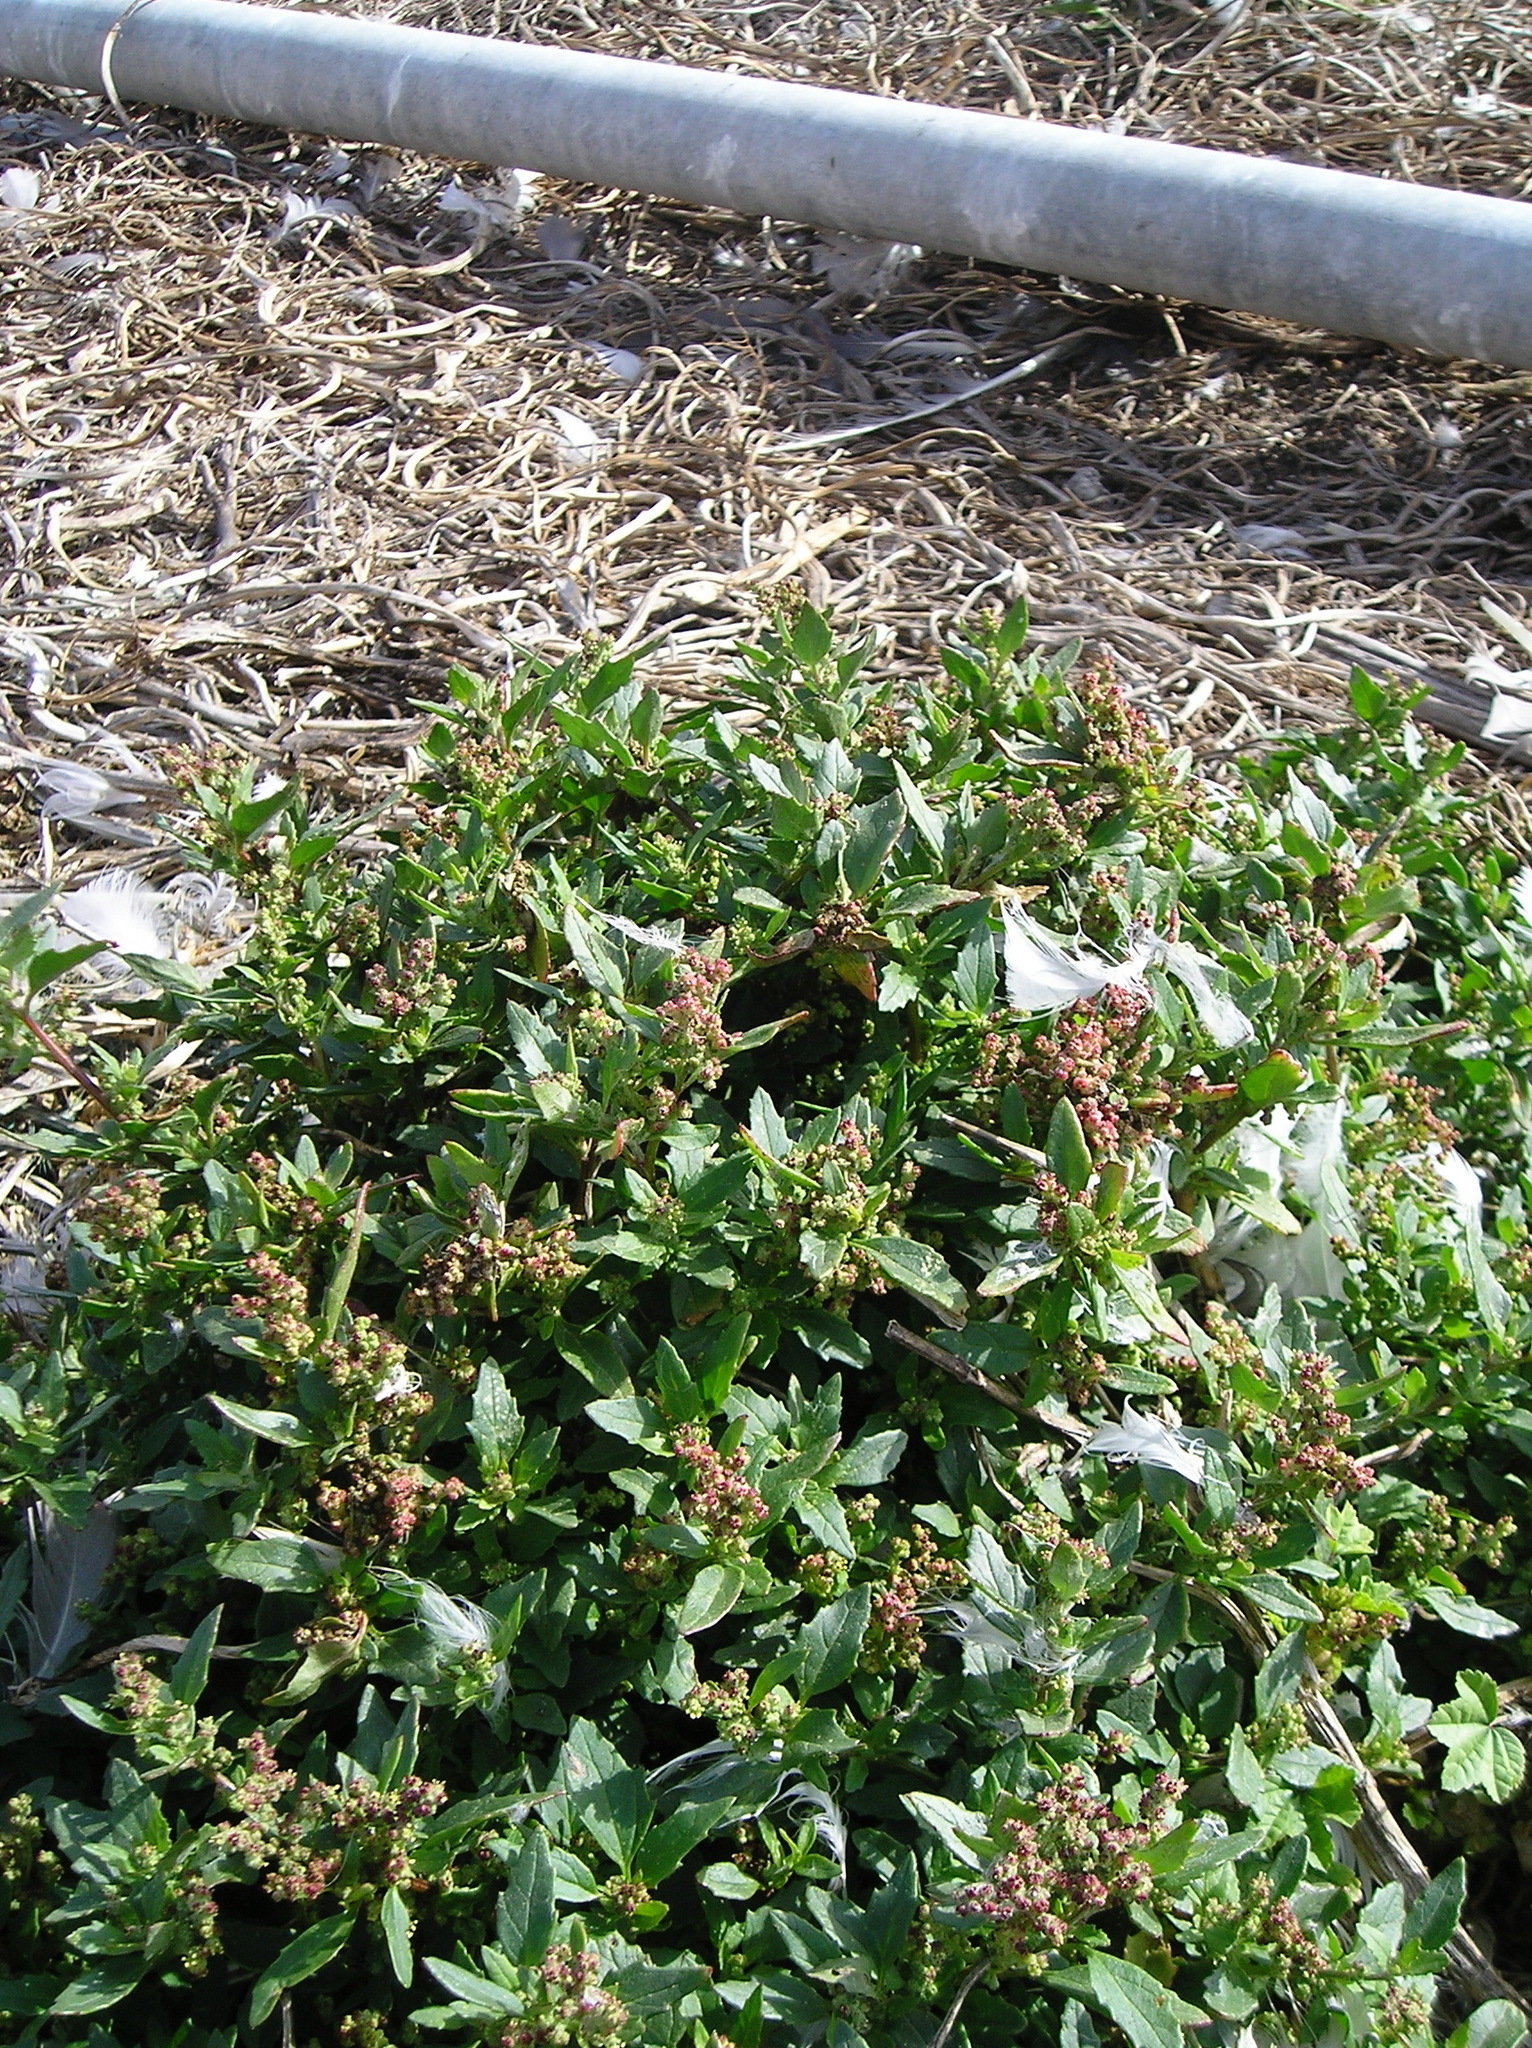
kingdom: Plantae
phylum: Tracheophyta
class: Magnoliopsida
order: Caryophyllales
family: Amaranthaceae
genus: Chenopodiastrum
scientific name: Chenopodiastrum murale
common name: Sowbane
